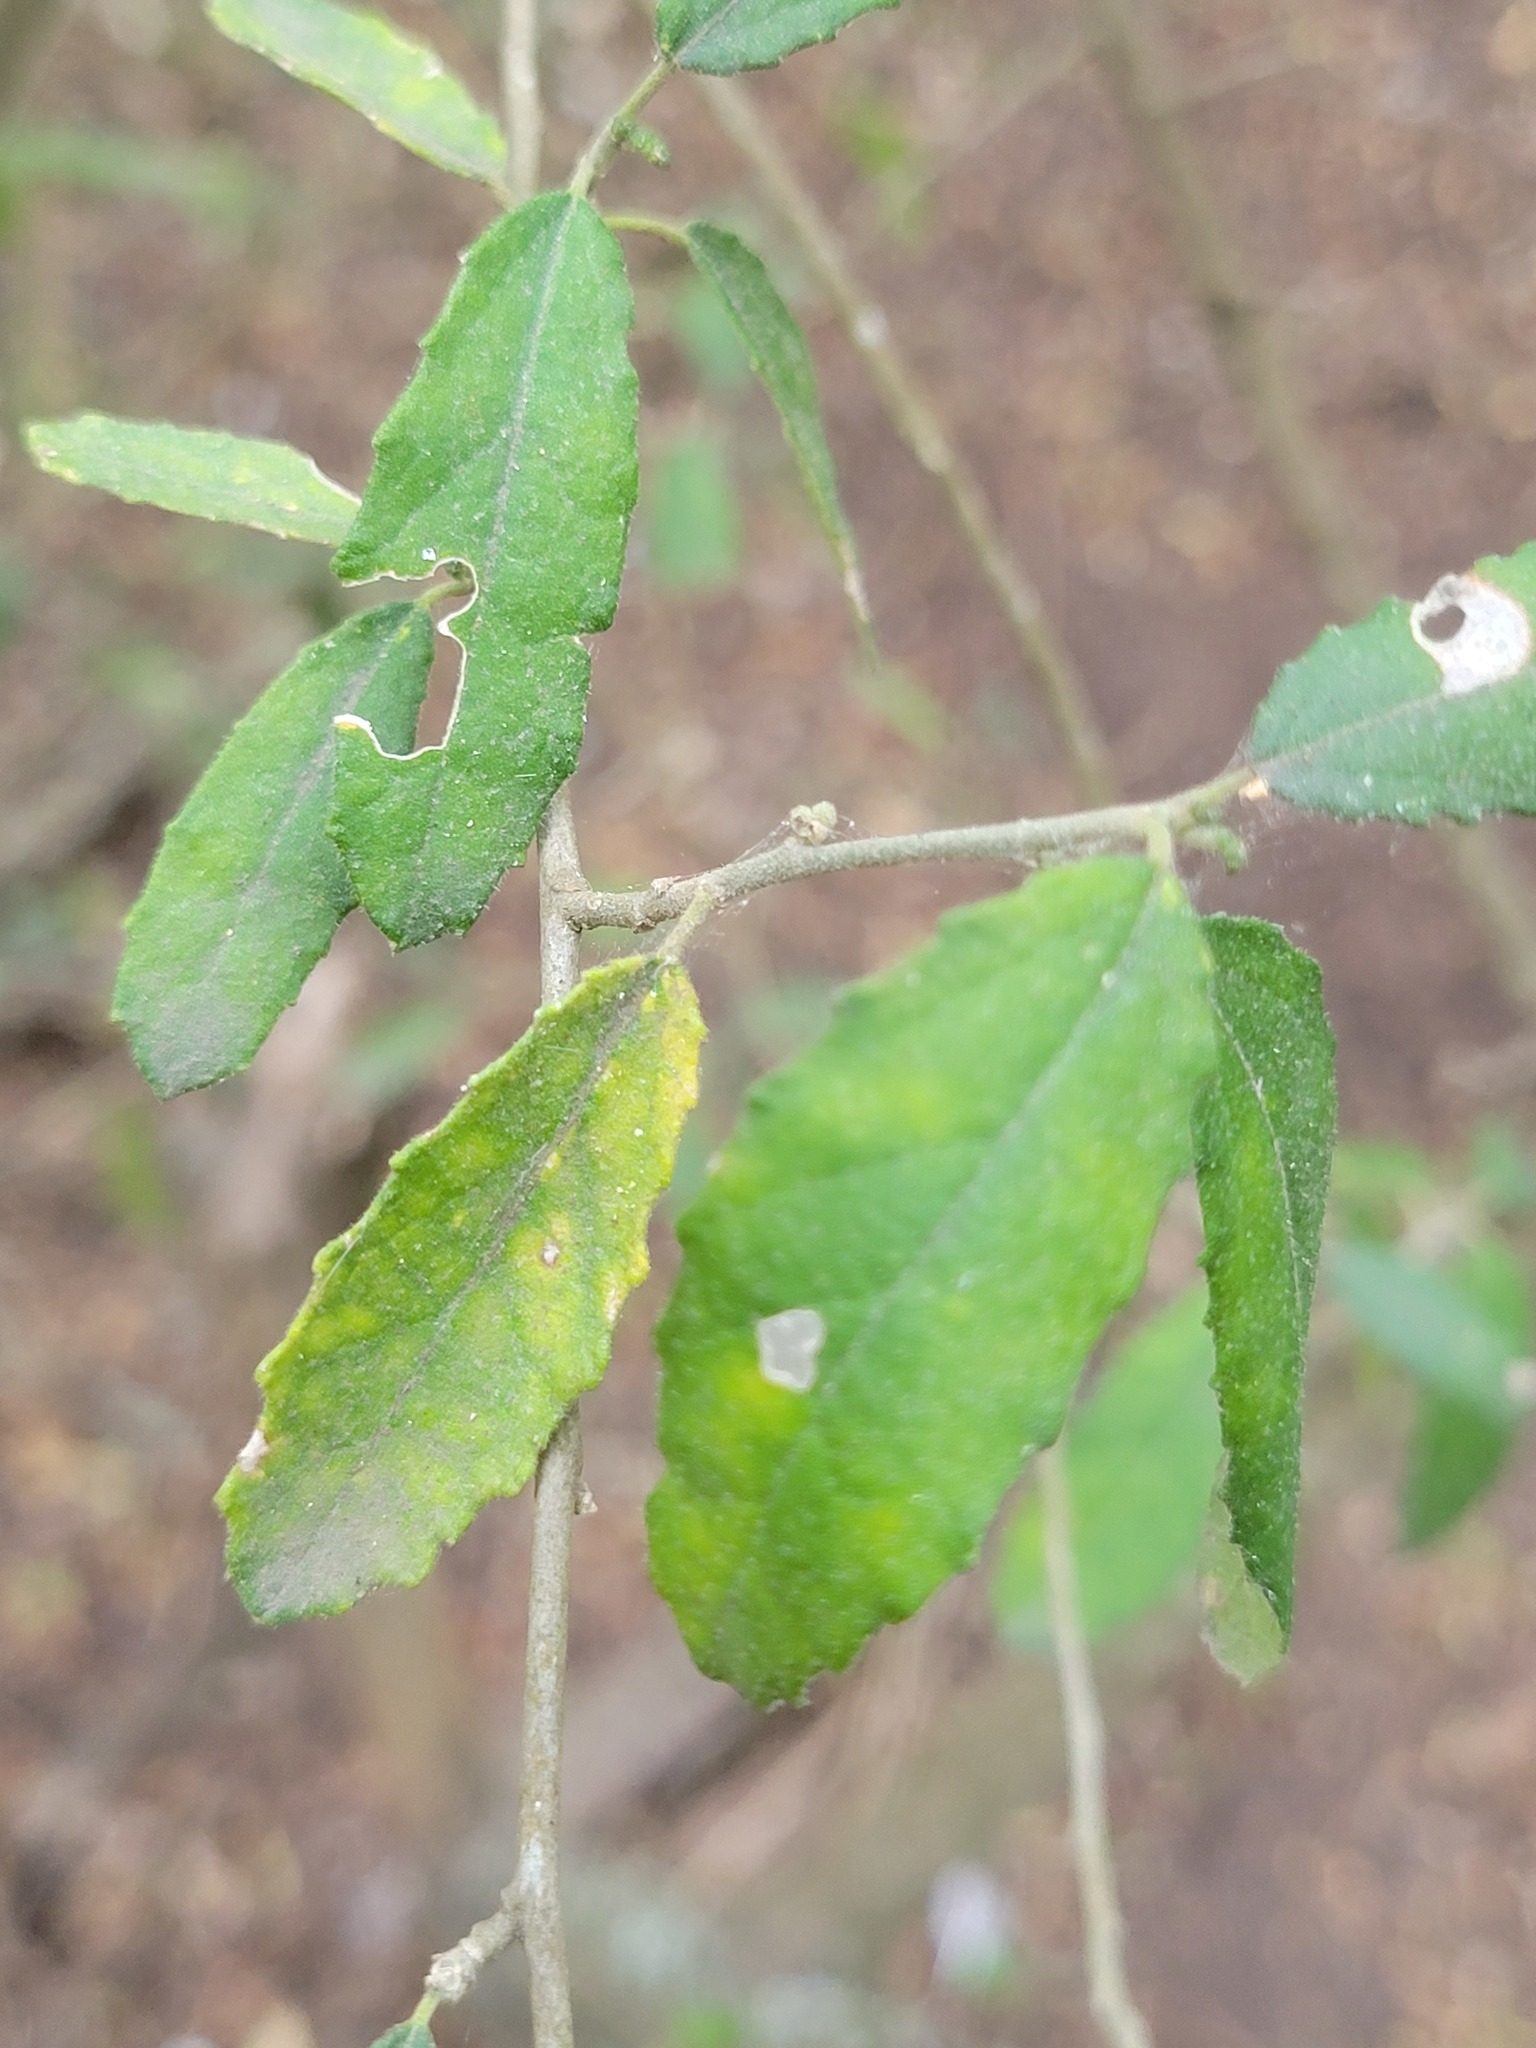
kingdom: Plantae
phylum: Tracheophyta
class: Magnoliopsida
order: Malpighiales
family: Euphorbiaceae
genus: Bernardia
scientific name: Bernardia myricifolia
